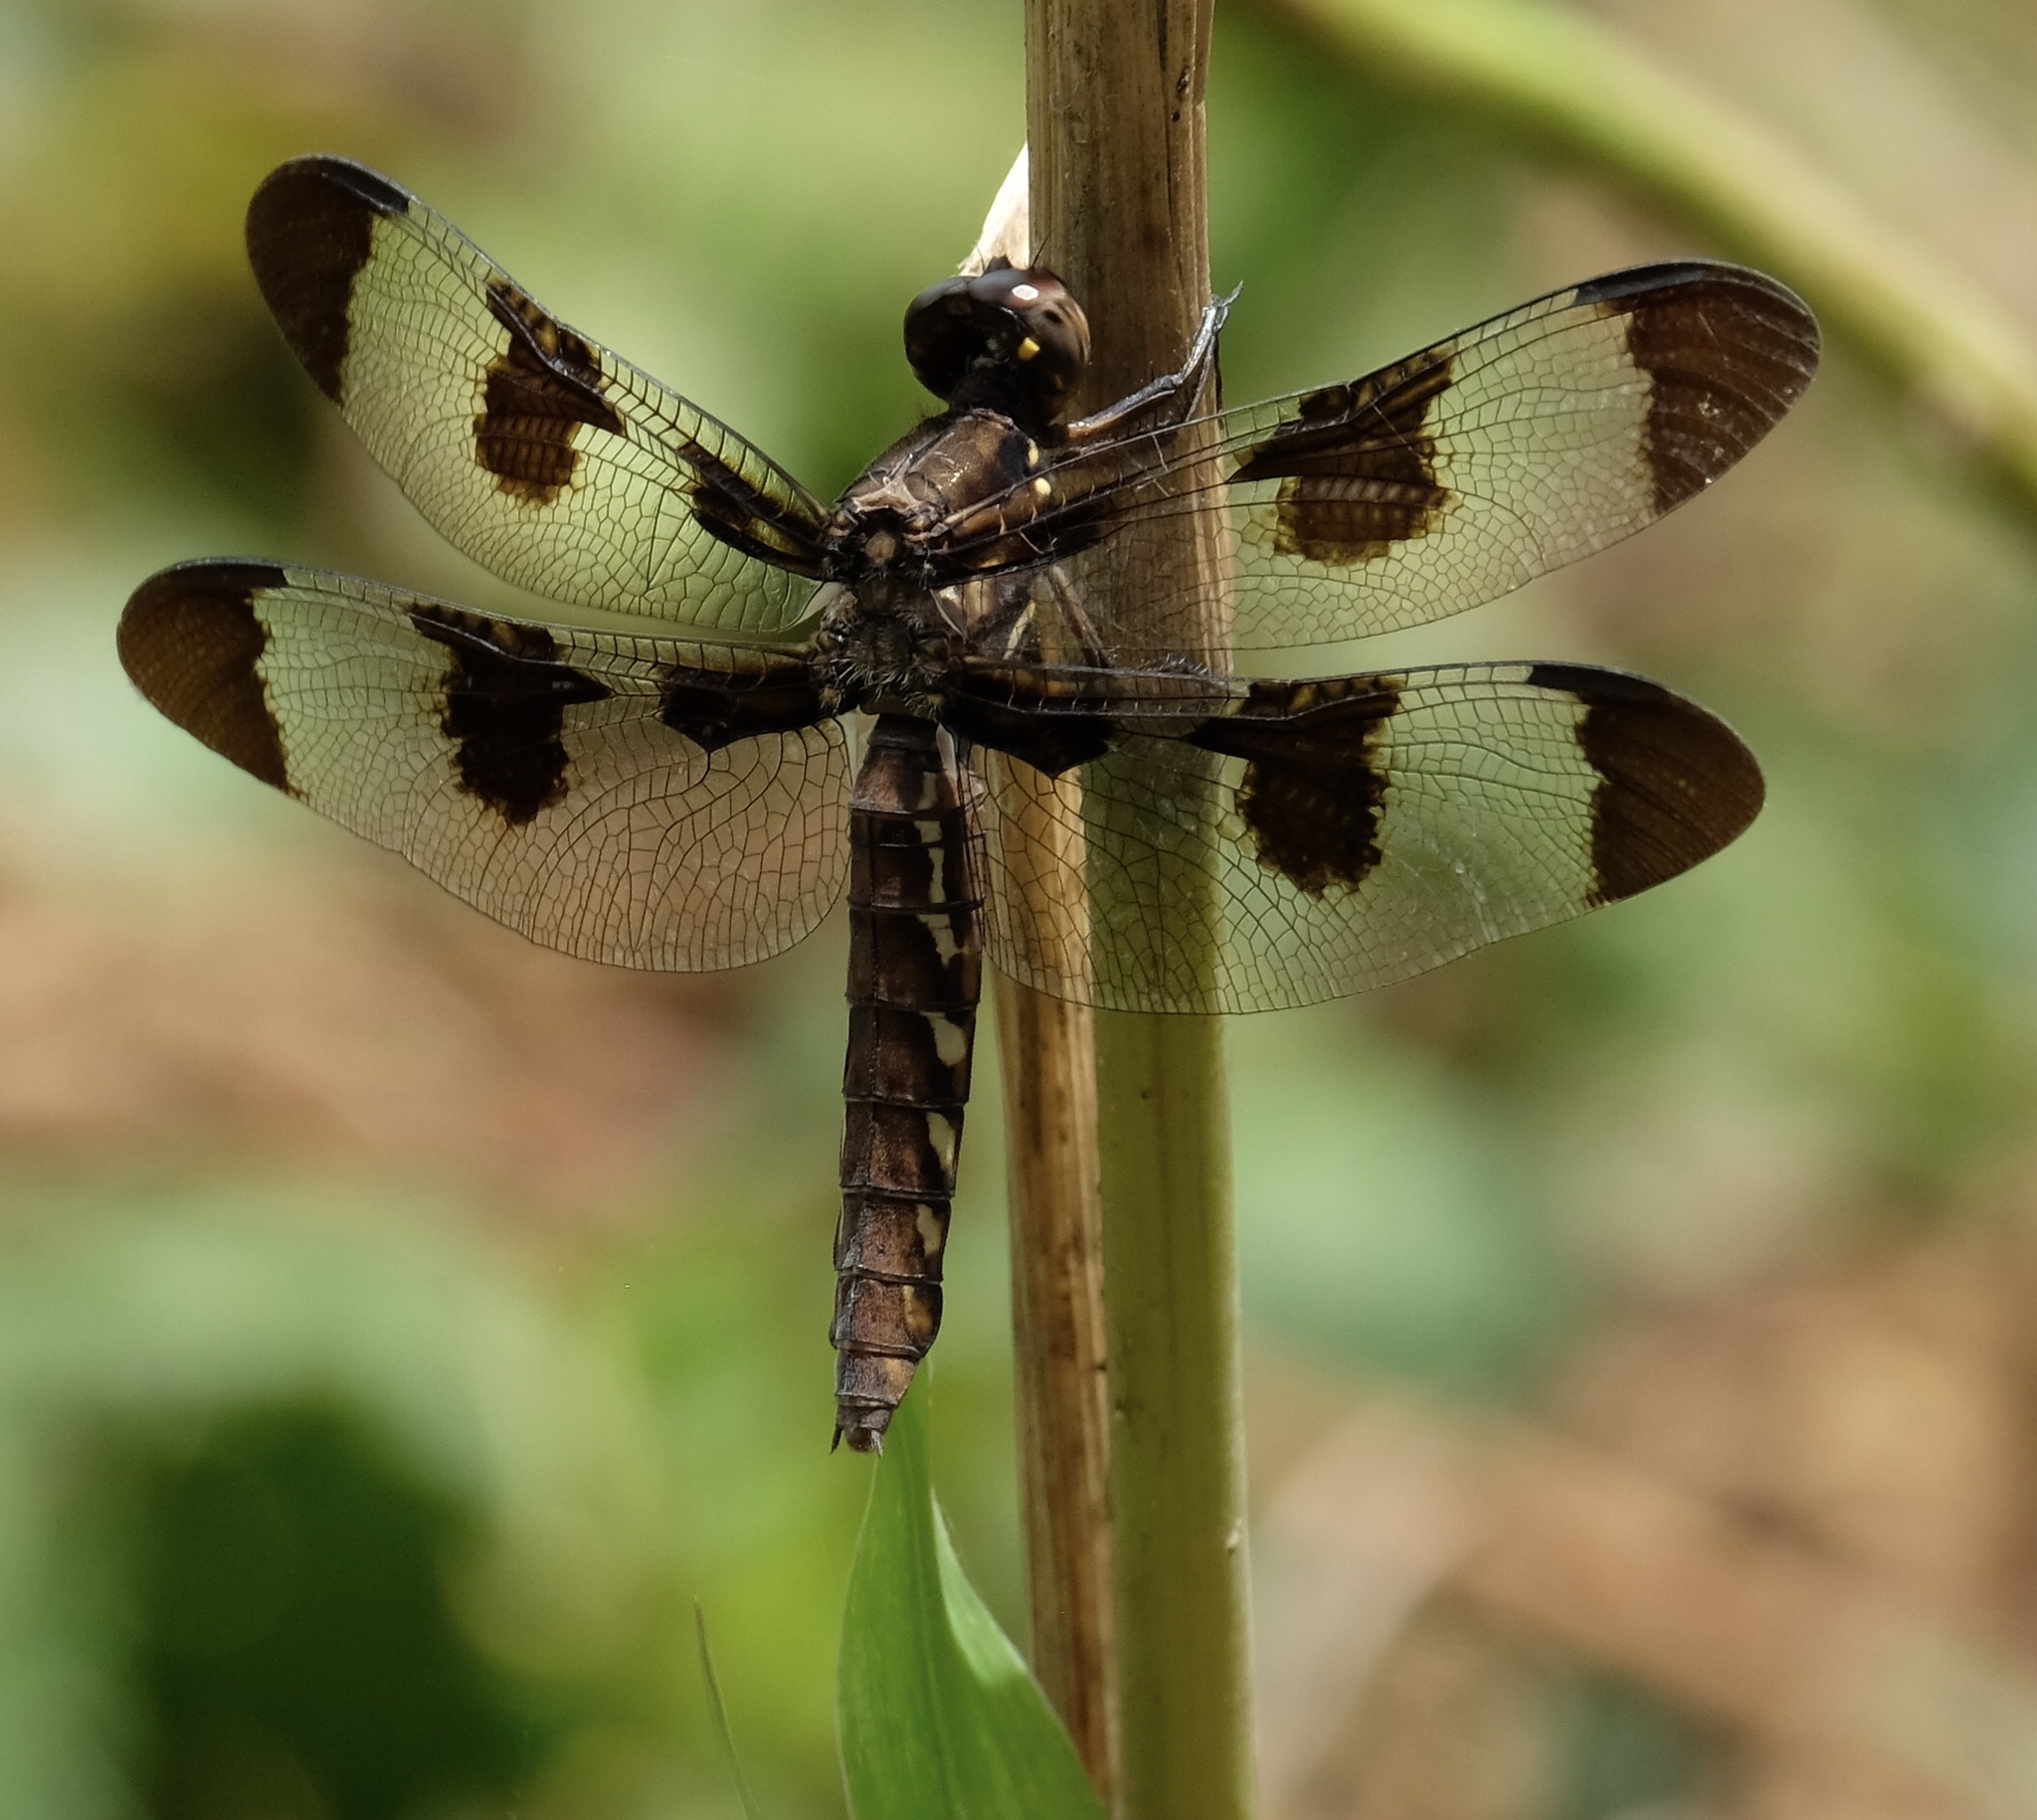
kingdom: Animalia
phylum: Arthropoda
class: Insecta
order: Odonata
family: Libellulidae
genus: Plathemis
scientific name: Plathemis lydia
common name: Common whitetail
